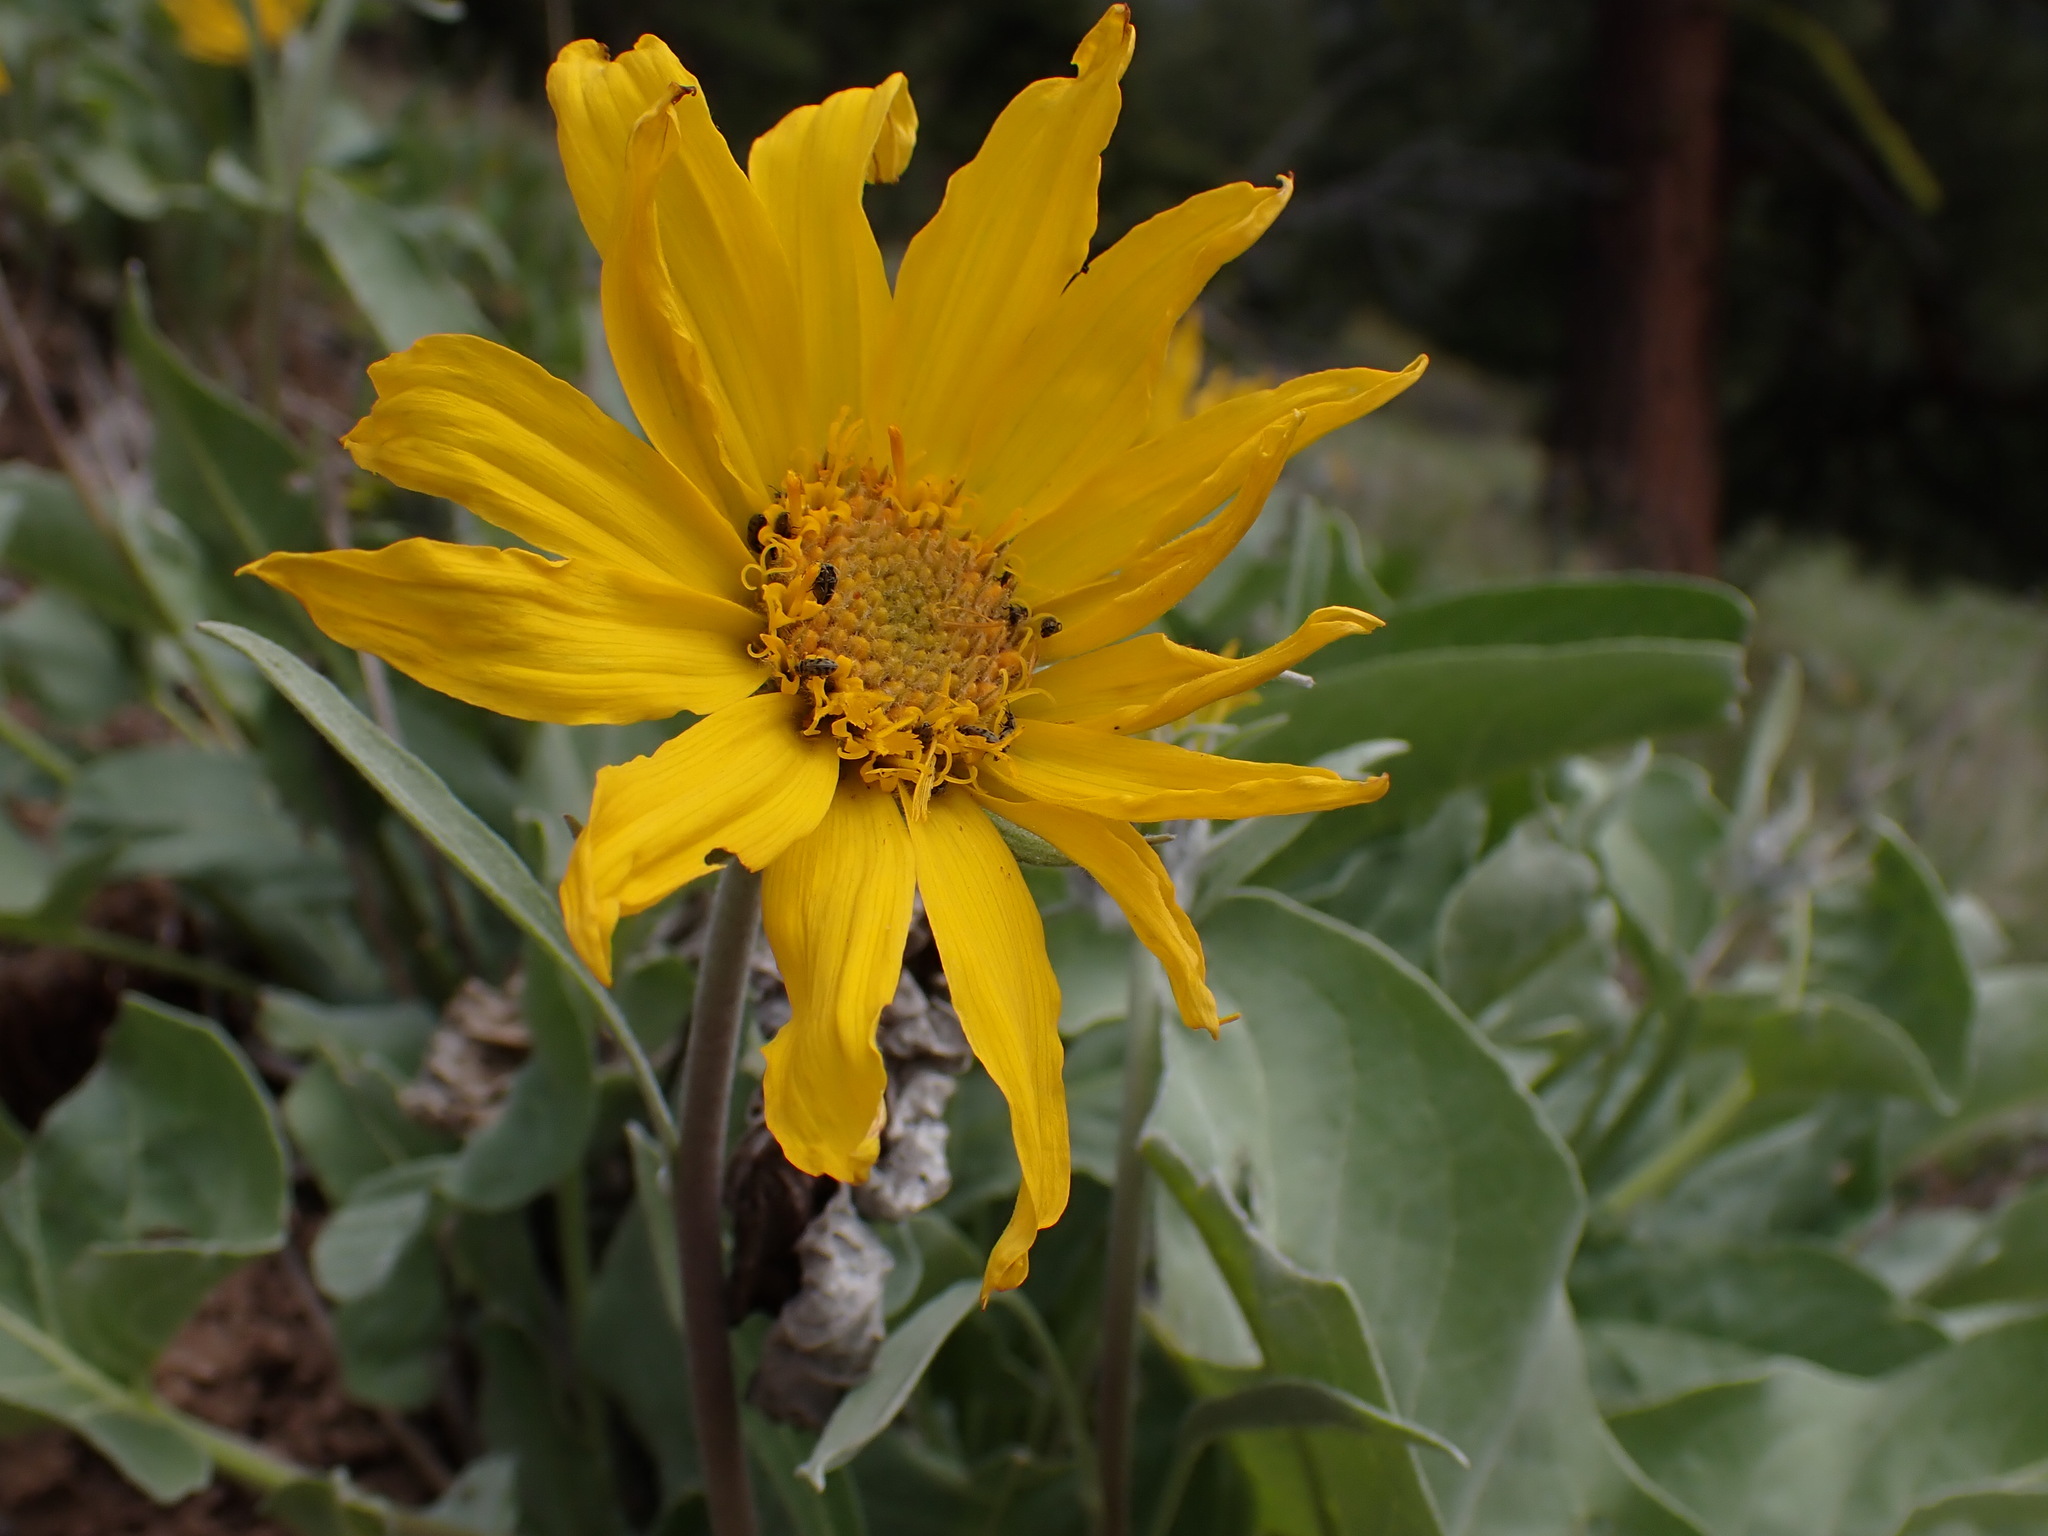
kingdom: Plantae
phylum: Tracheophyta
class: Magnoliopsida
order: Asterales
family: Asteraceae
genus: Wyethia
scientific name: Wyethia sagittata
